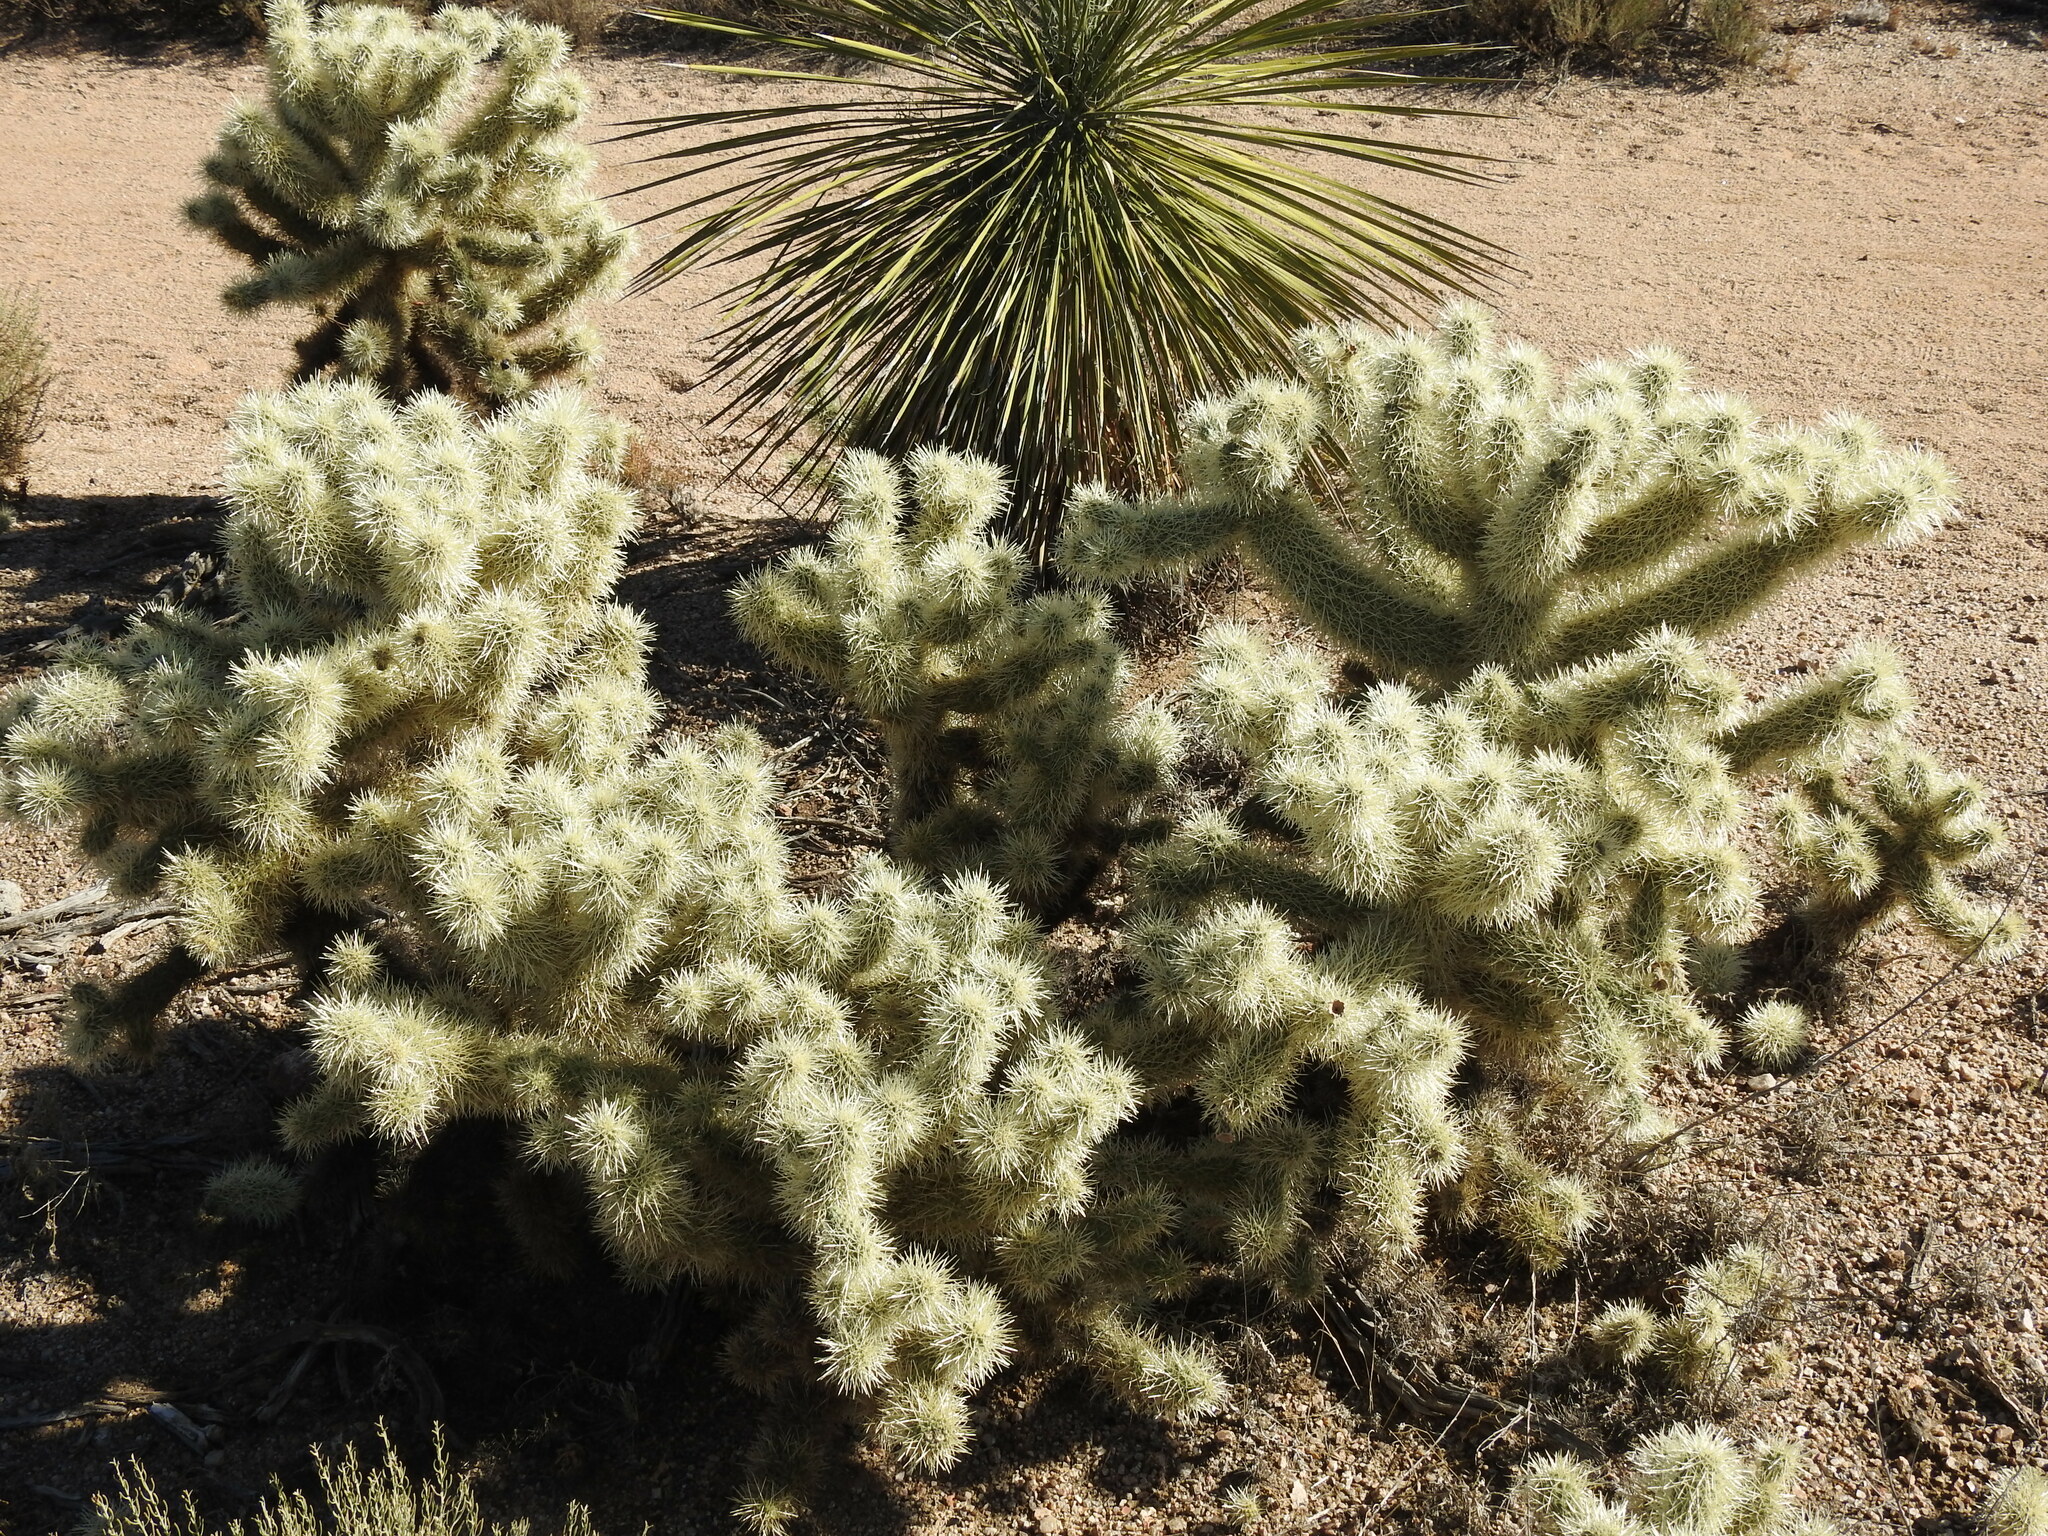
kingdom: Plantae
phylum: Tracheophyta
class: Magnoliopsida
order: Caryophyllales
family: Cactaceae
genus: Cylindropuntia
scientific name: Cylindropuntia fosbergii
